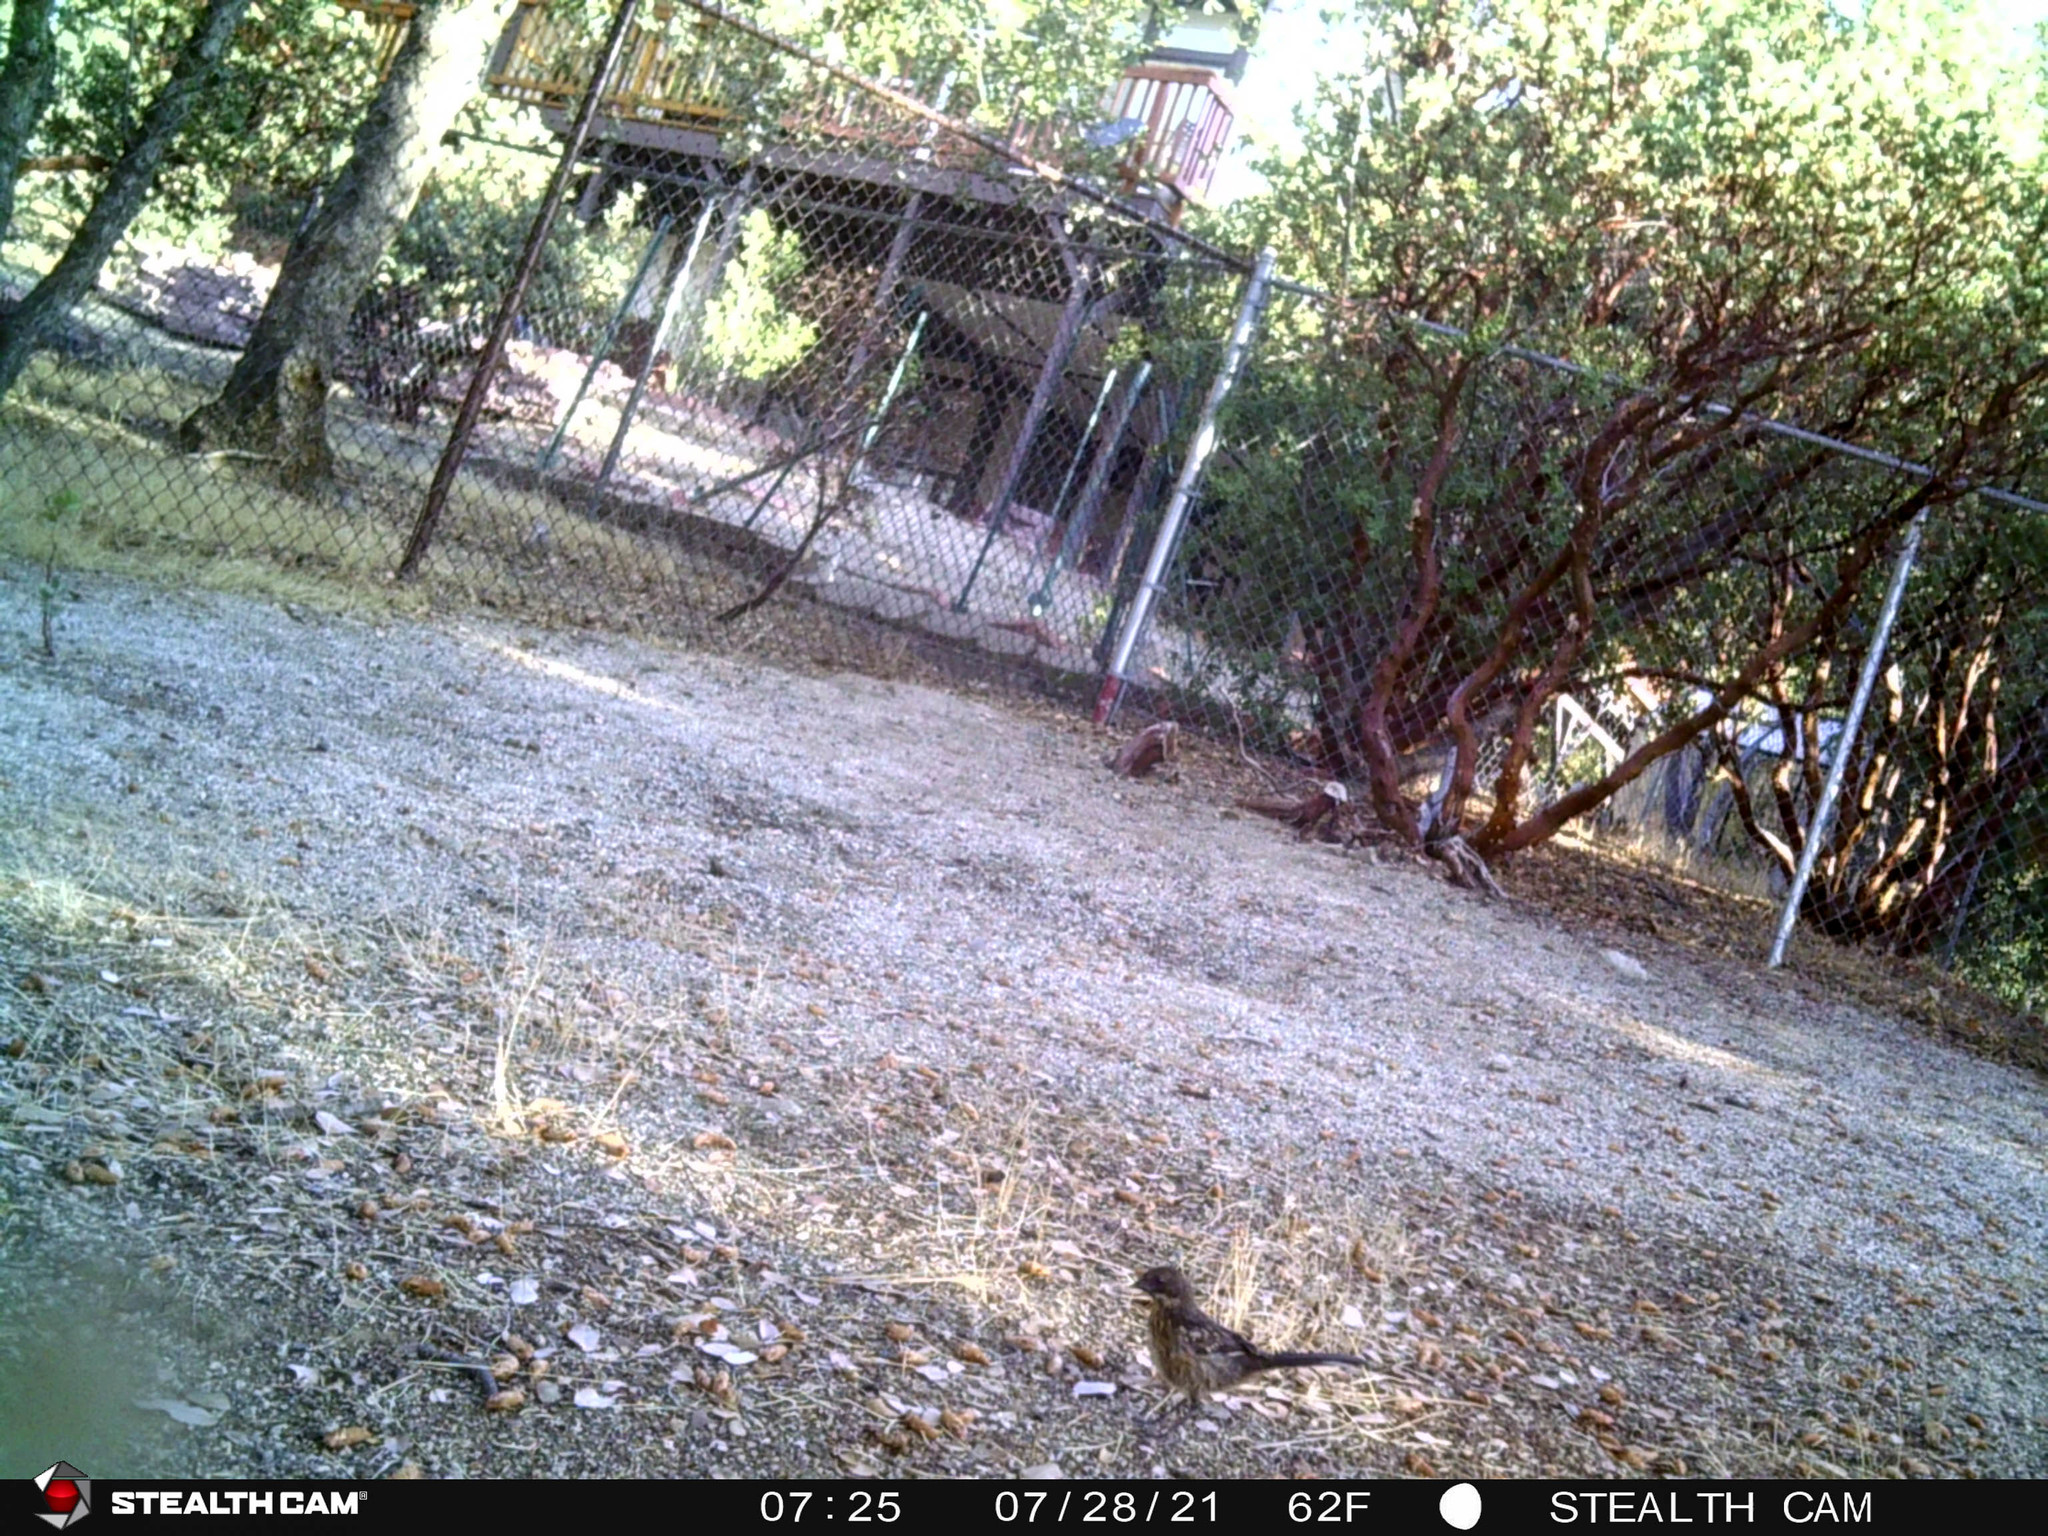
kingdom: Animalia
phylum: Chordata
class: Aves
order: Passeriformes
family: Passerellidae
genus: Pipilo
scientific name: Pipilo maculatus
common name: Spotted towhee
